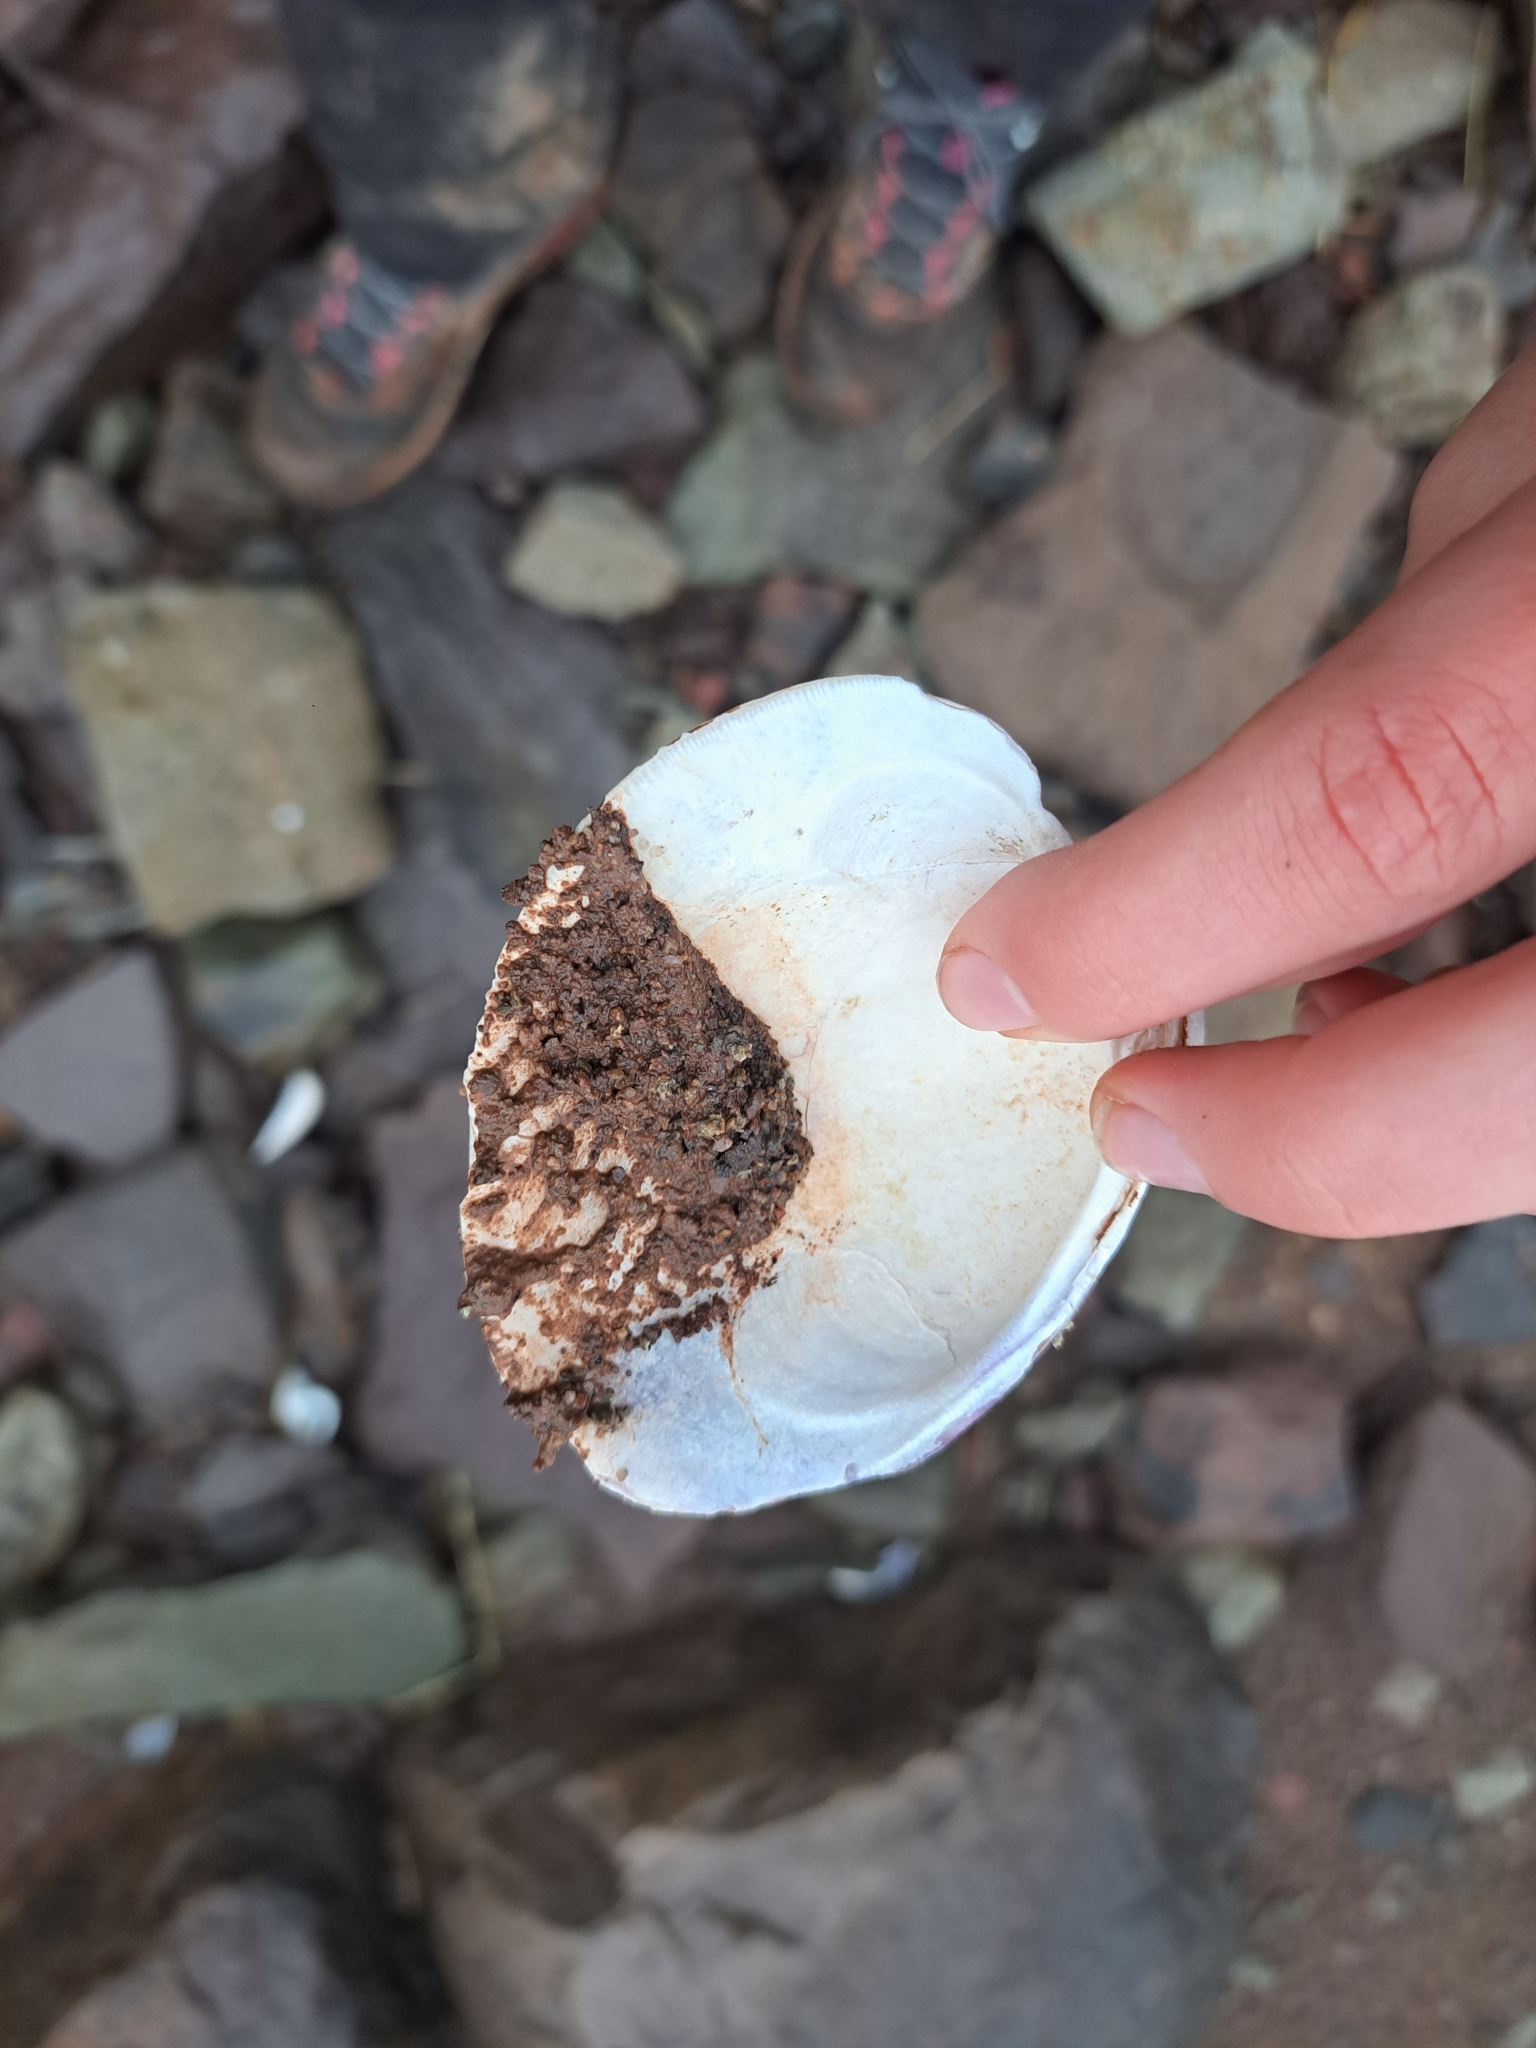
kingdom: Animalia
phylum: Mollusca
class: Bivalvia
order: Venerida
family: Veneridae
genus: Mercenaria
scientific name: Mercenaria mercenaria
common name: American hard-shelled clam
